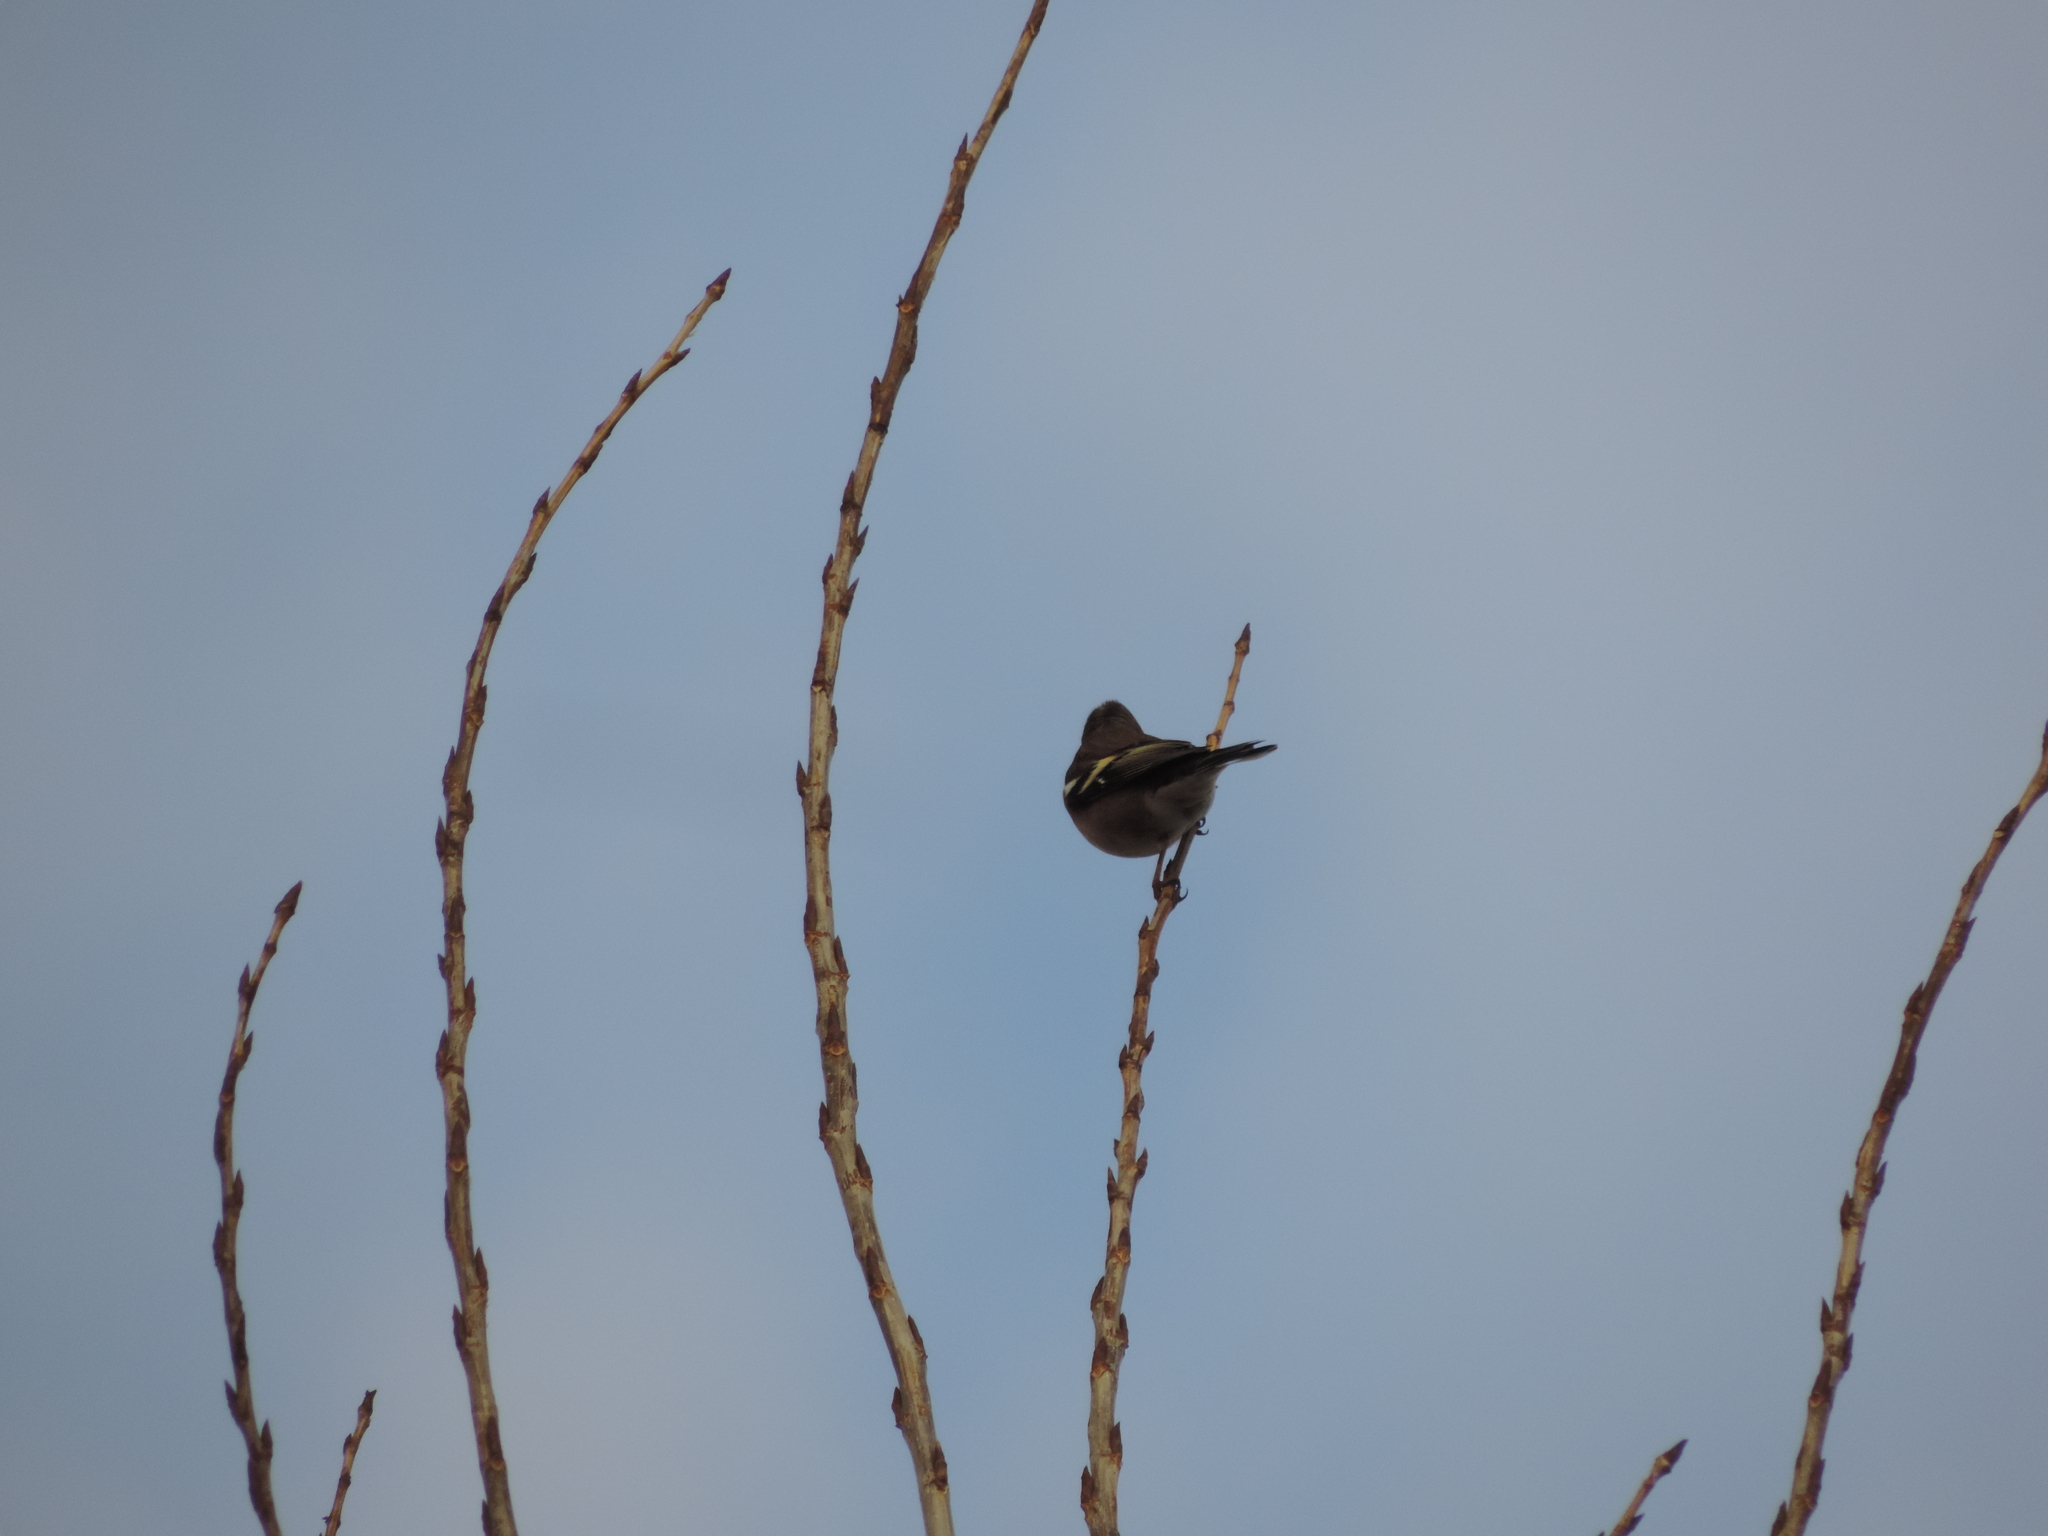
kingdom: Animalia
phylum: Chordata
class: Aves
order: Passeriformes
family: Fringillidae
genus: Fringilla
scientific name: Fringilla coelebs
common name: Common chaffinch
